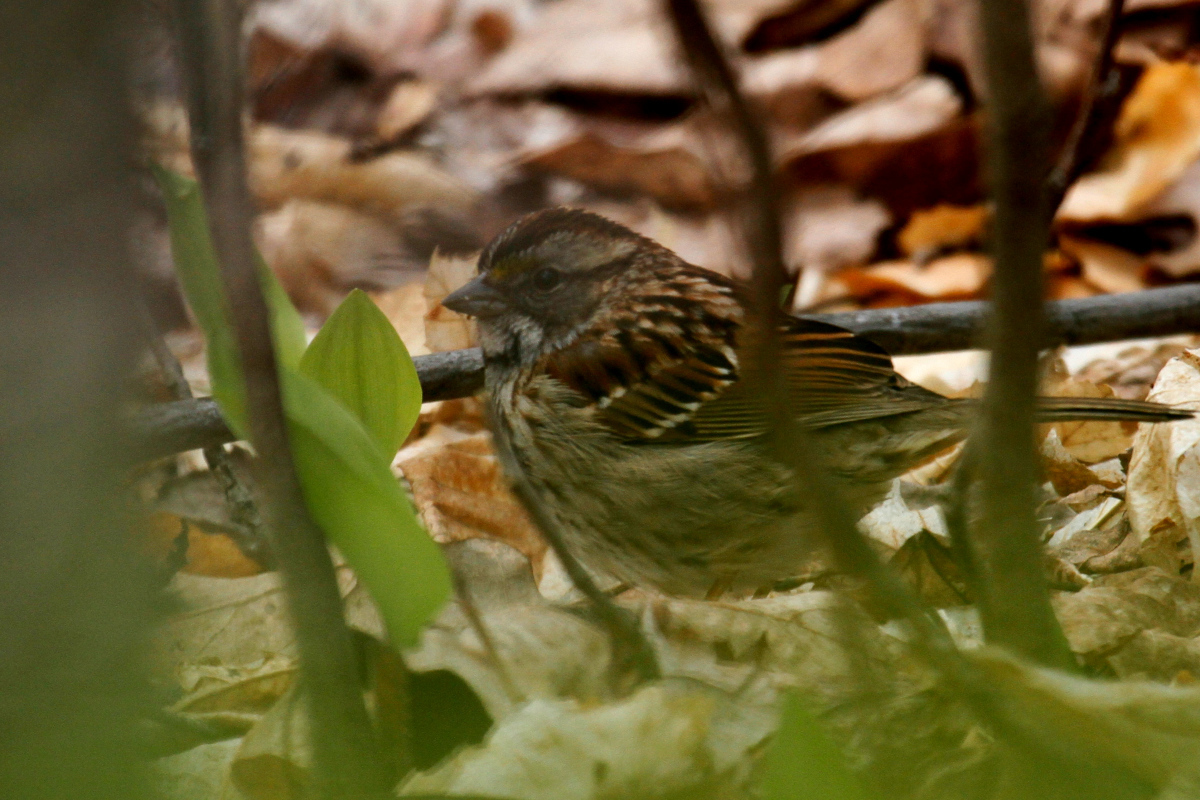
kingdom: Animalia
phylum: Chordata
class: Aves
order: Passeriformes
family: Passerellidae
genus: Zonotrichia
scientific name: Zonotrichia albicollis
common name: White-throated sparrow
